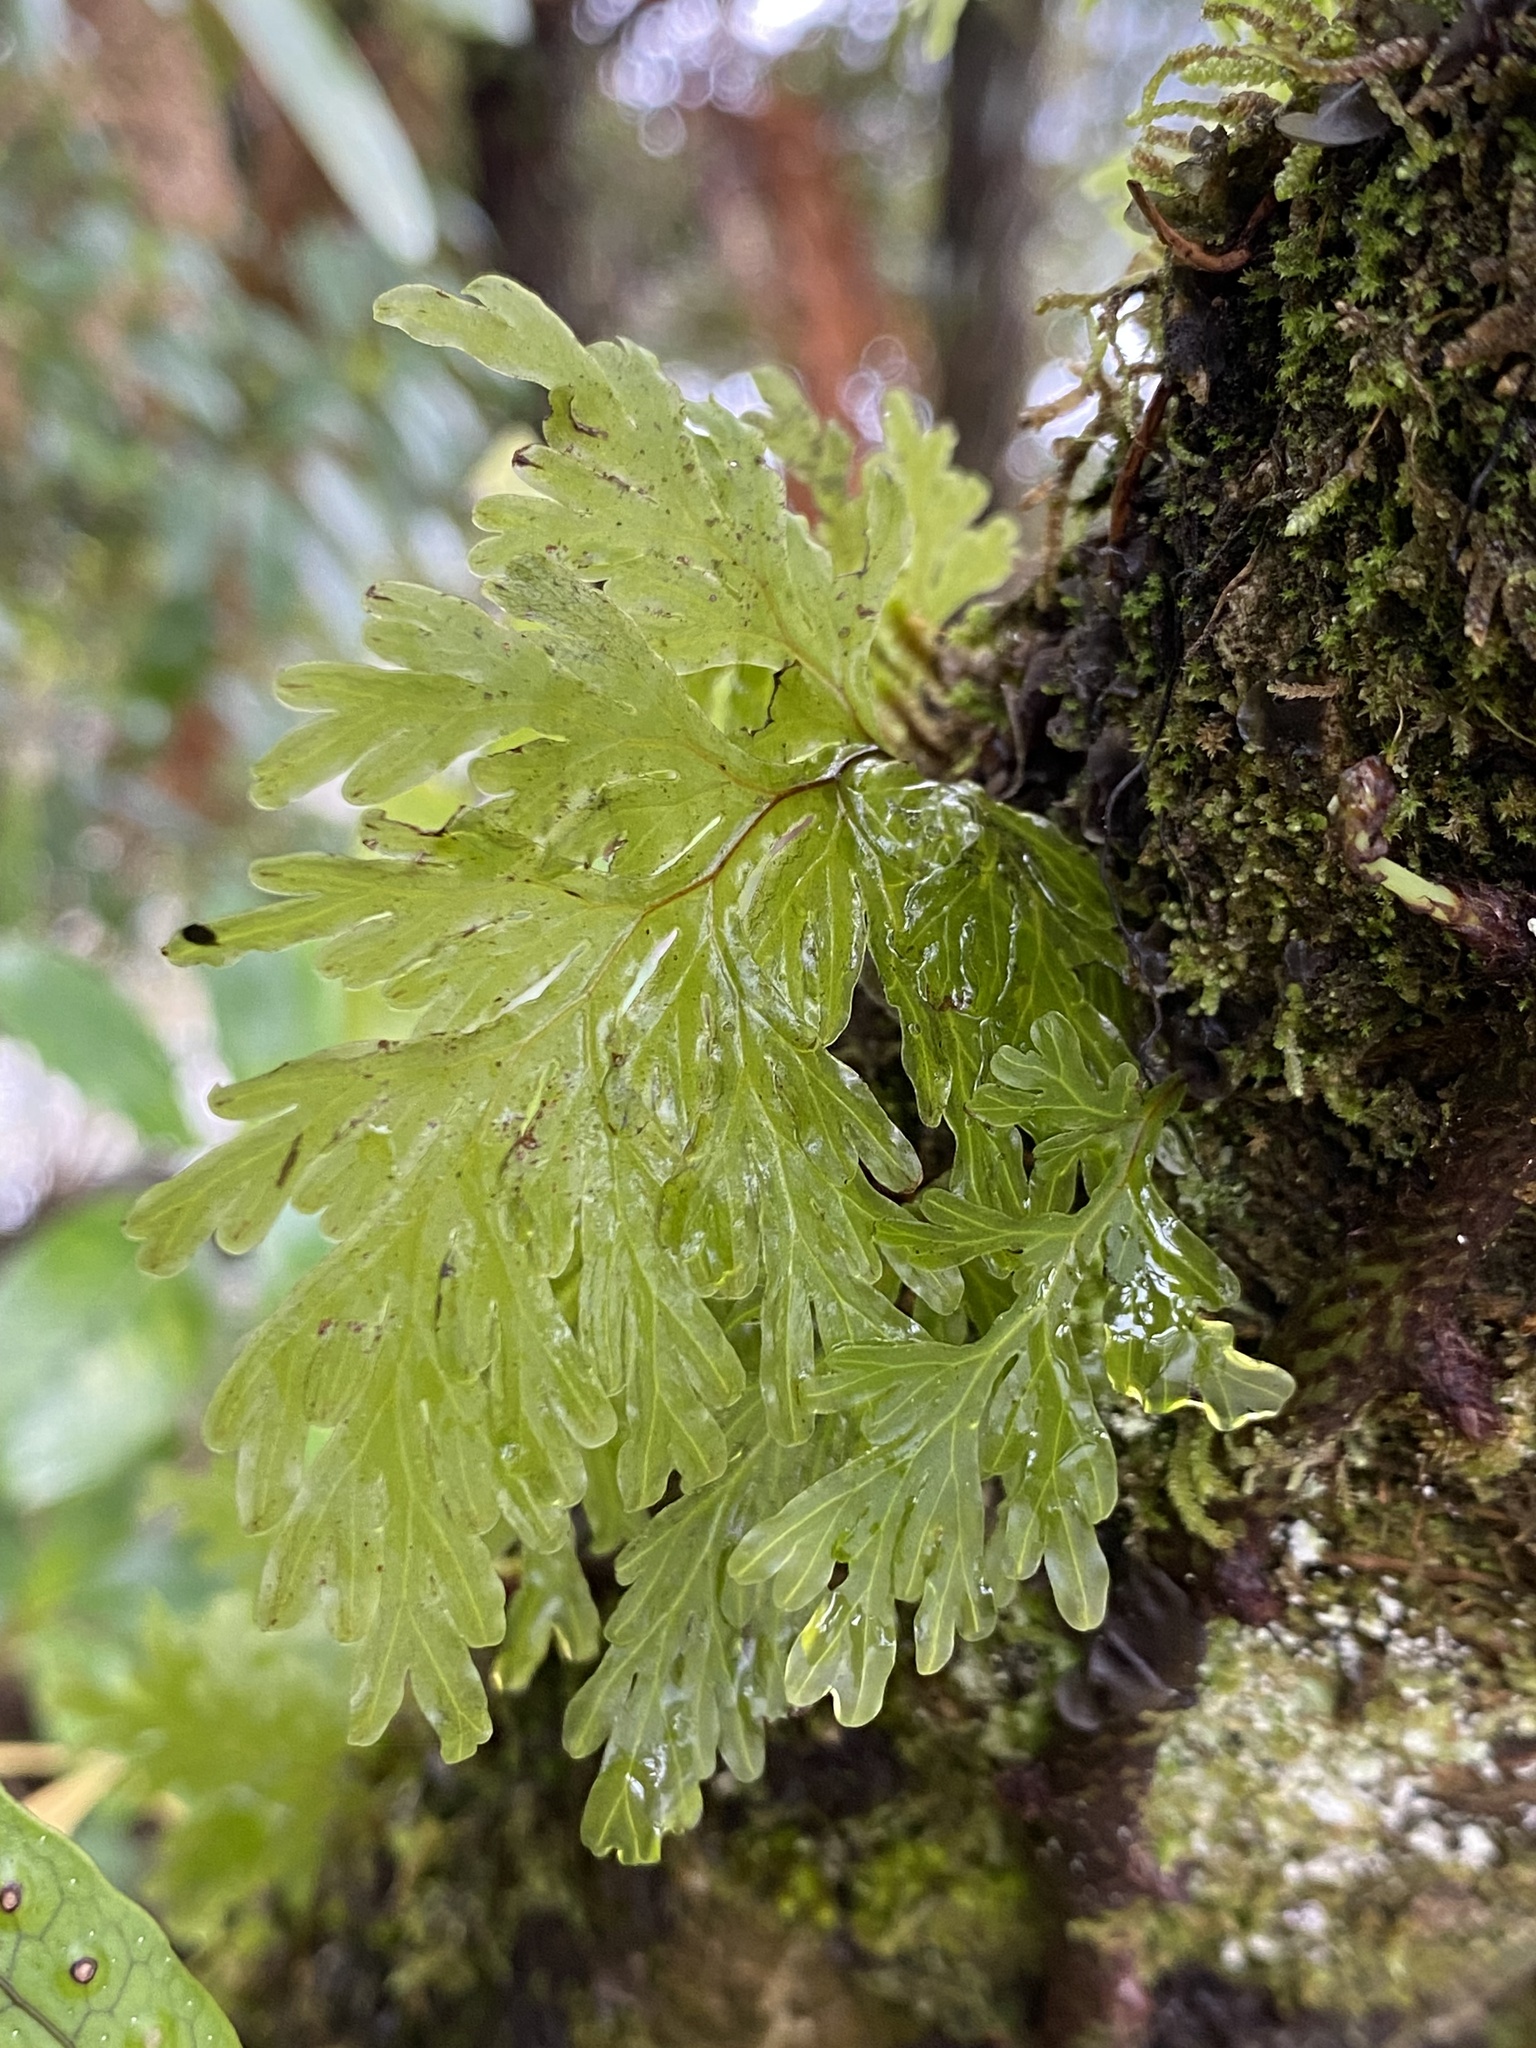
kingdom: Plantae
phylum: Tracheophyta
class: Polypodiopsida
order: Hymenophyllales
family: Hymenophyllaceae
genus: Hymenophyllum
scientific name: Hymenophyllum dilatatum
